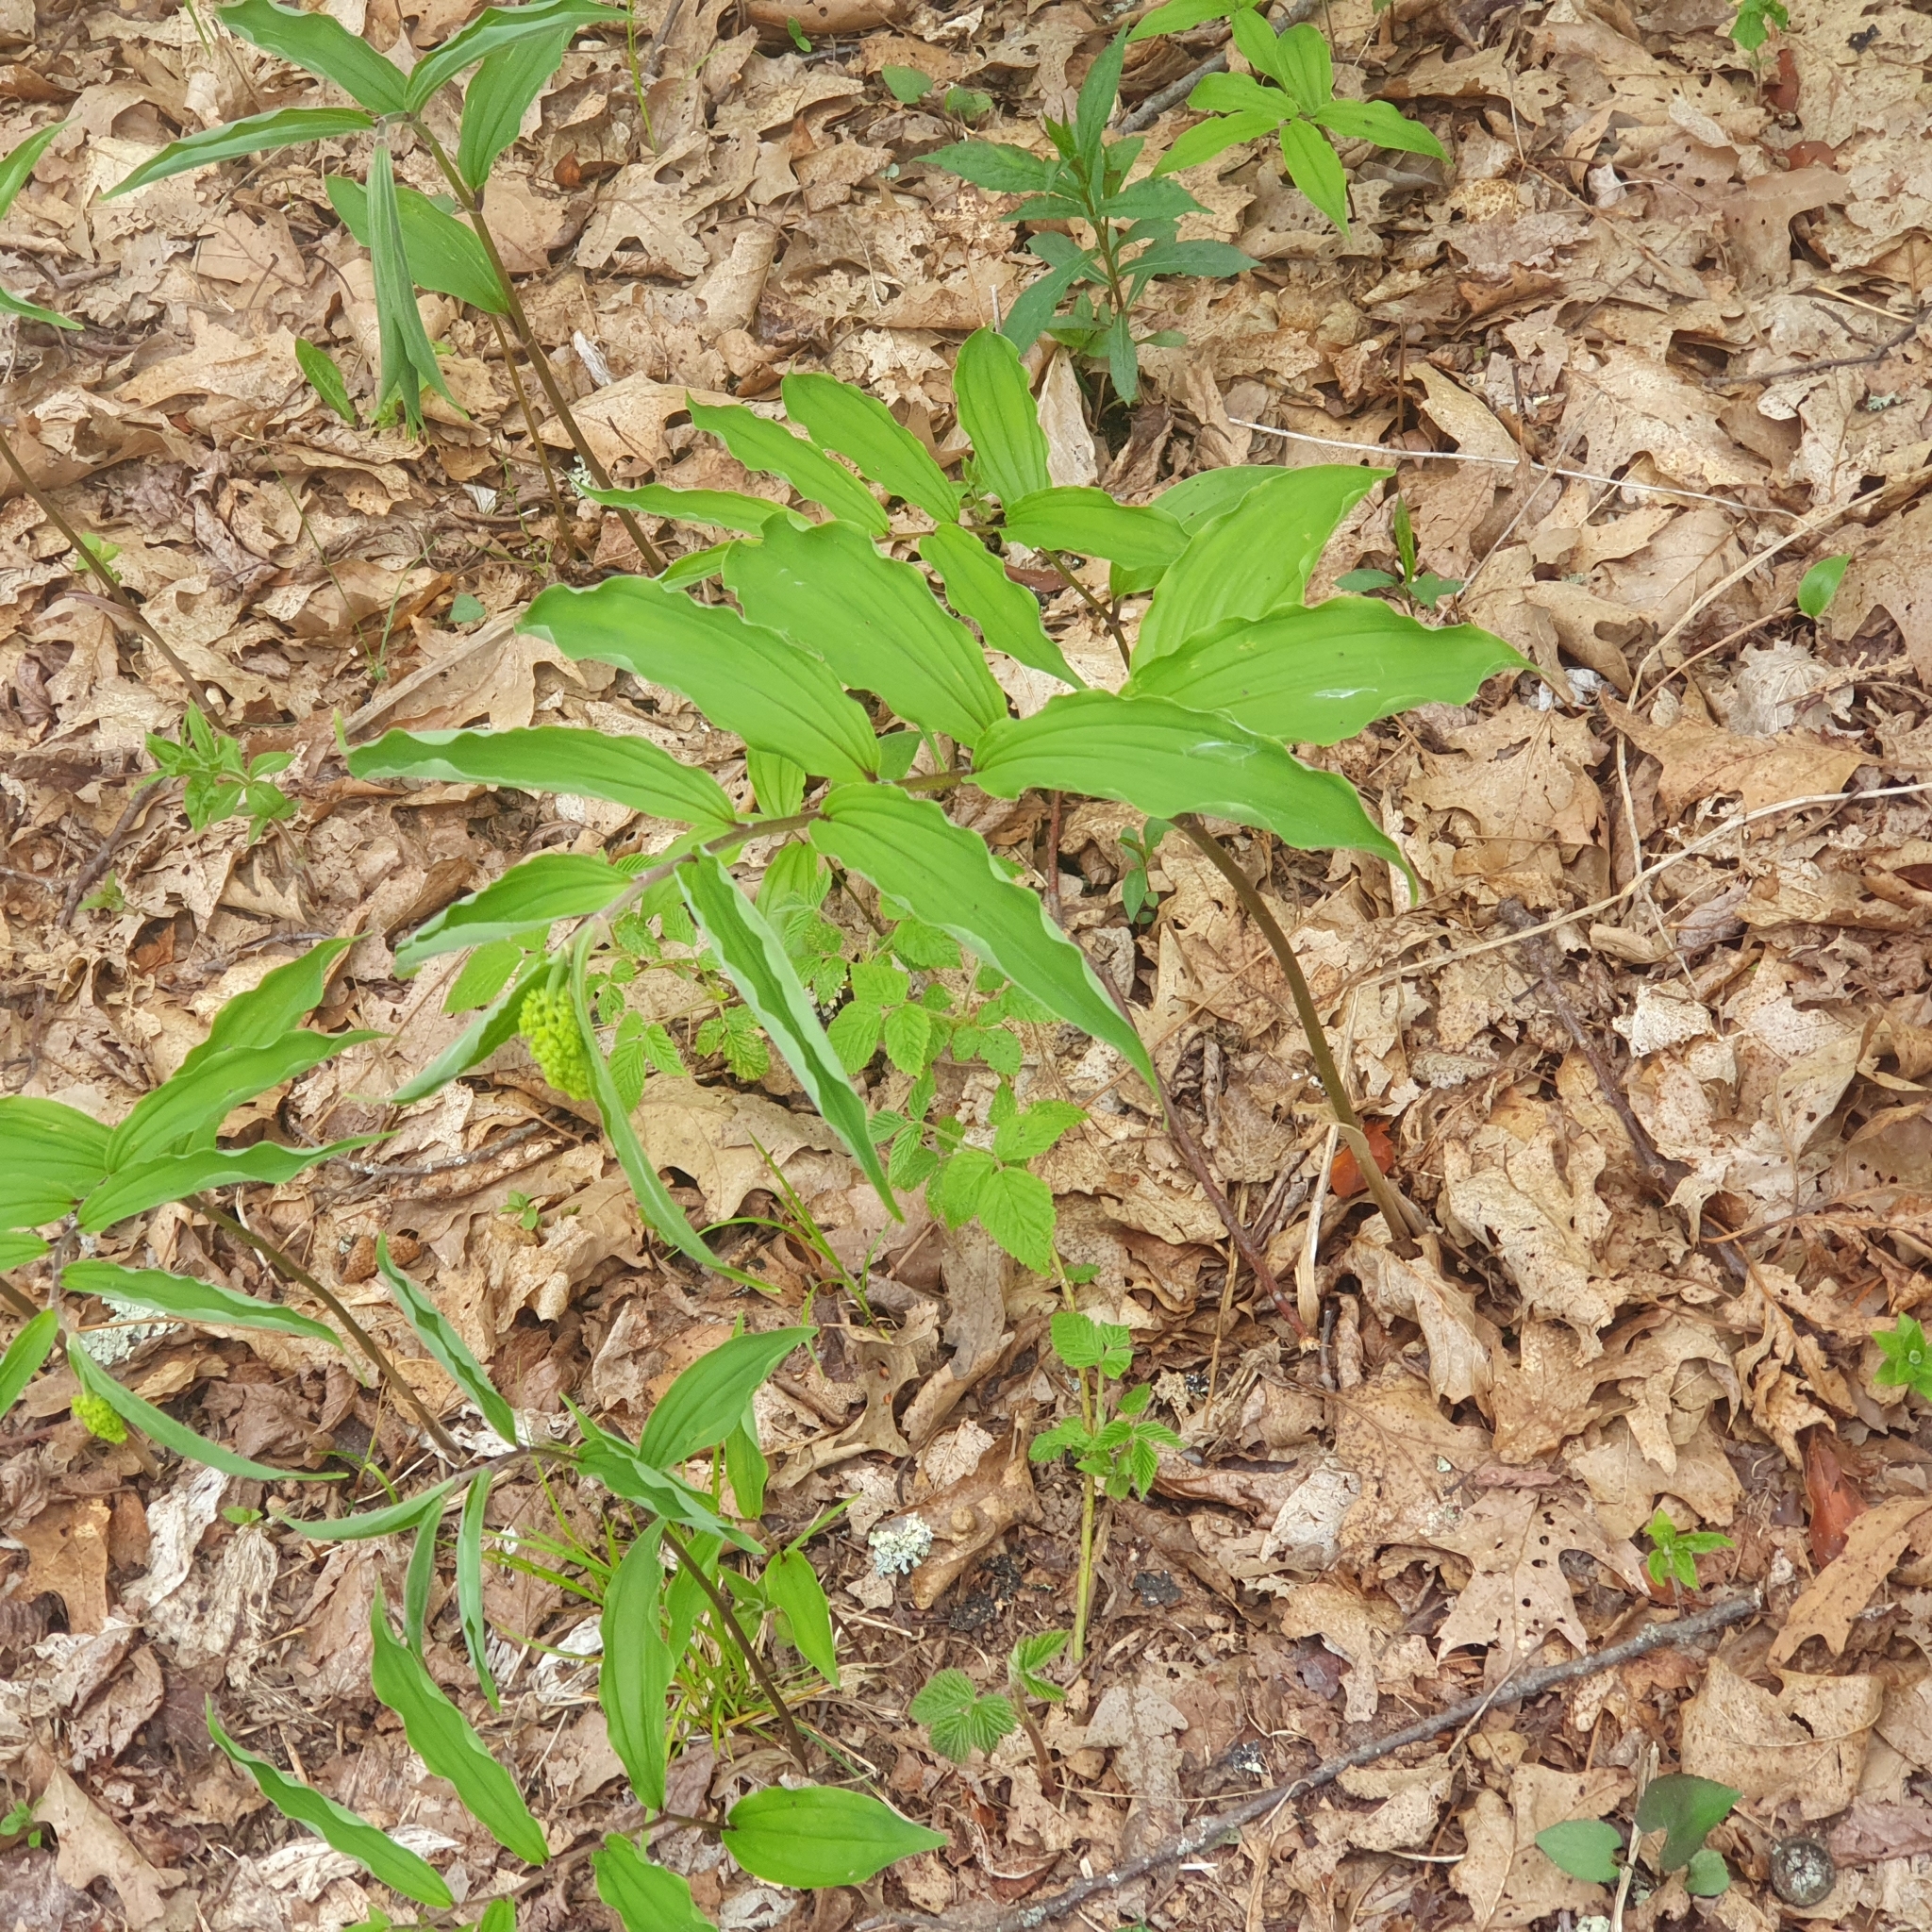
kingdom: Plantae
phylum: Tracheophyta
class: Liliopsida
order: Asparagales
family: Asparagaceae
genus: Maianthemum
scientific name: Maianthemum racemosum
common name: False spikenard
